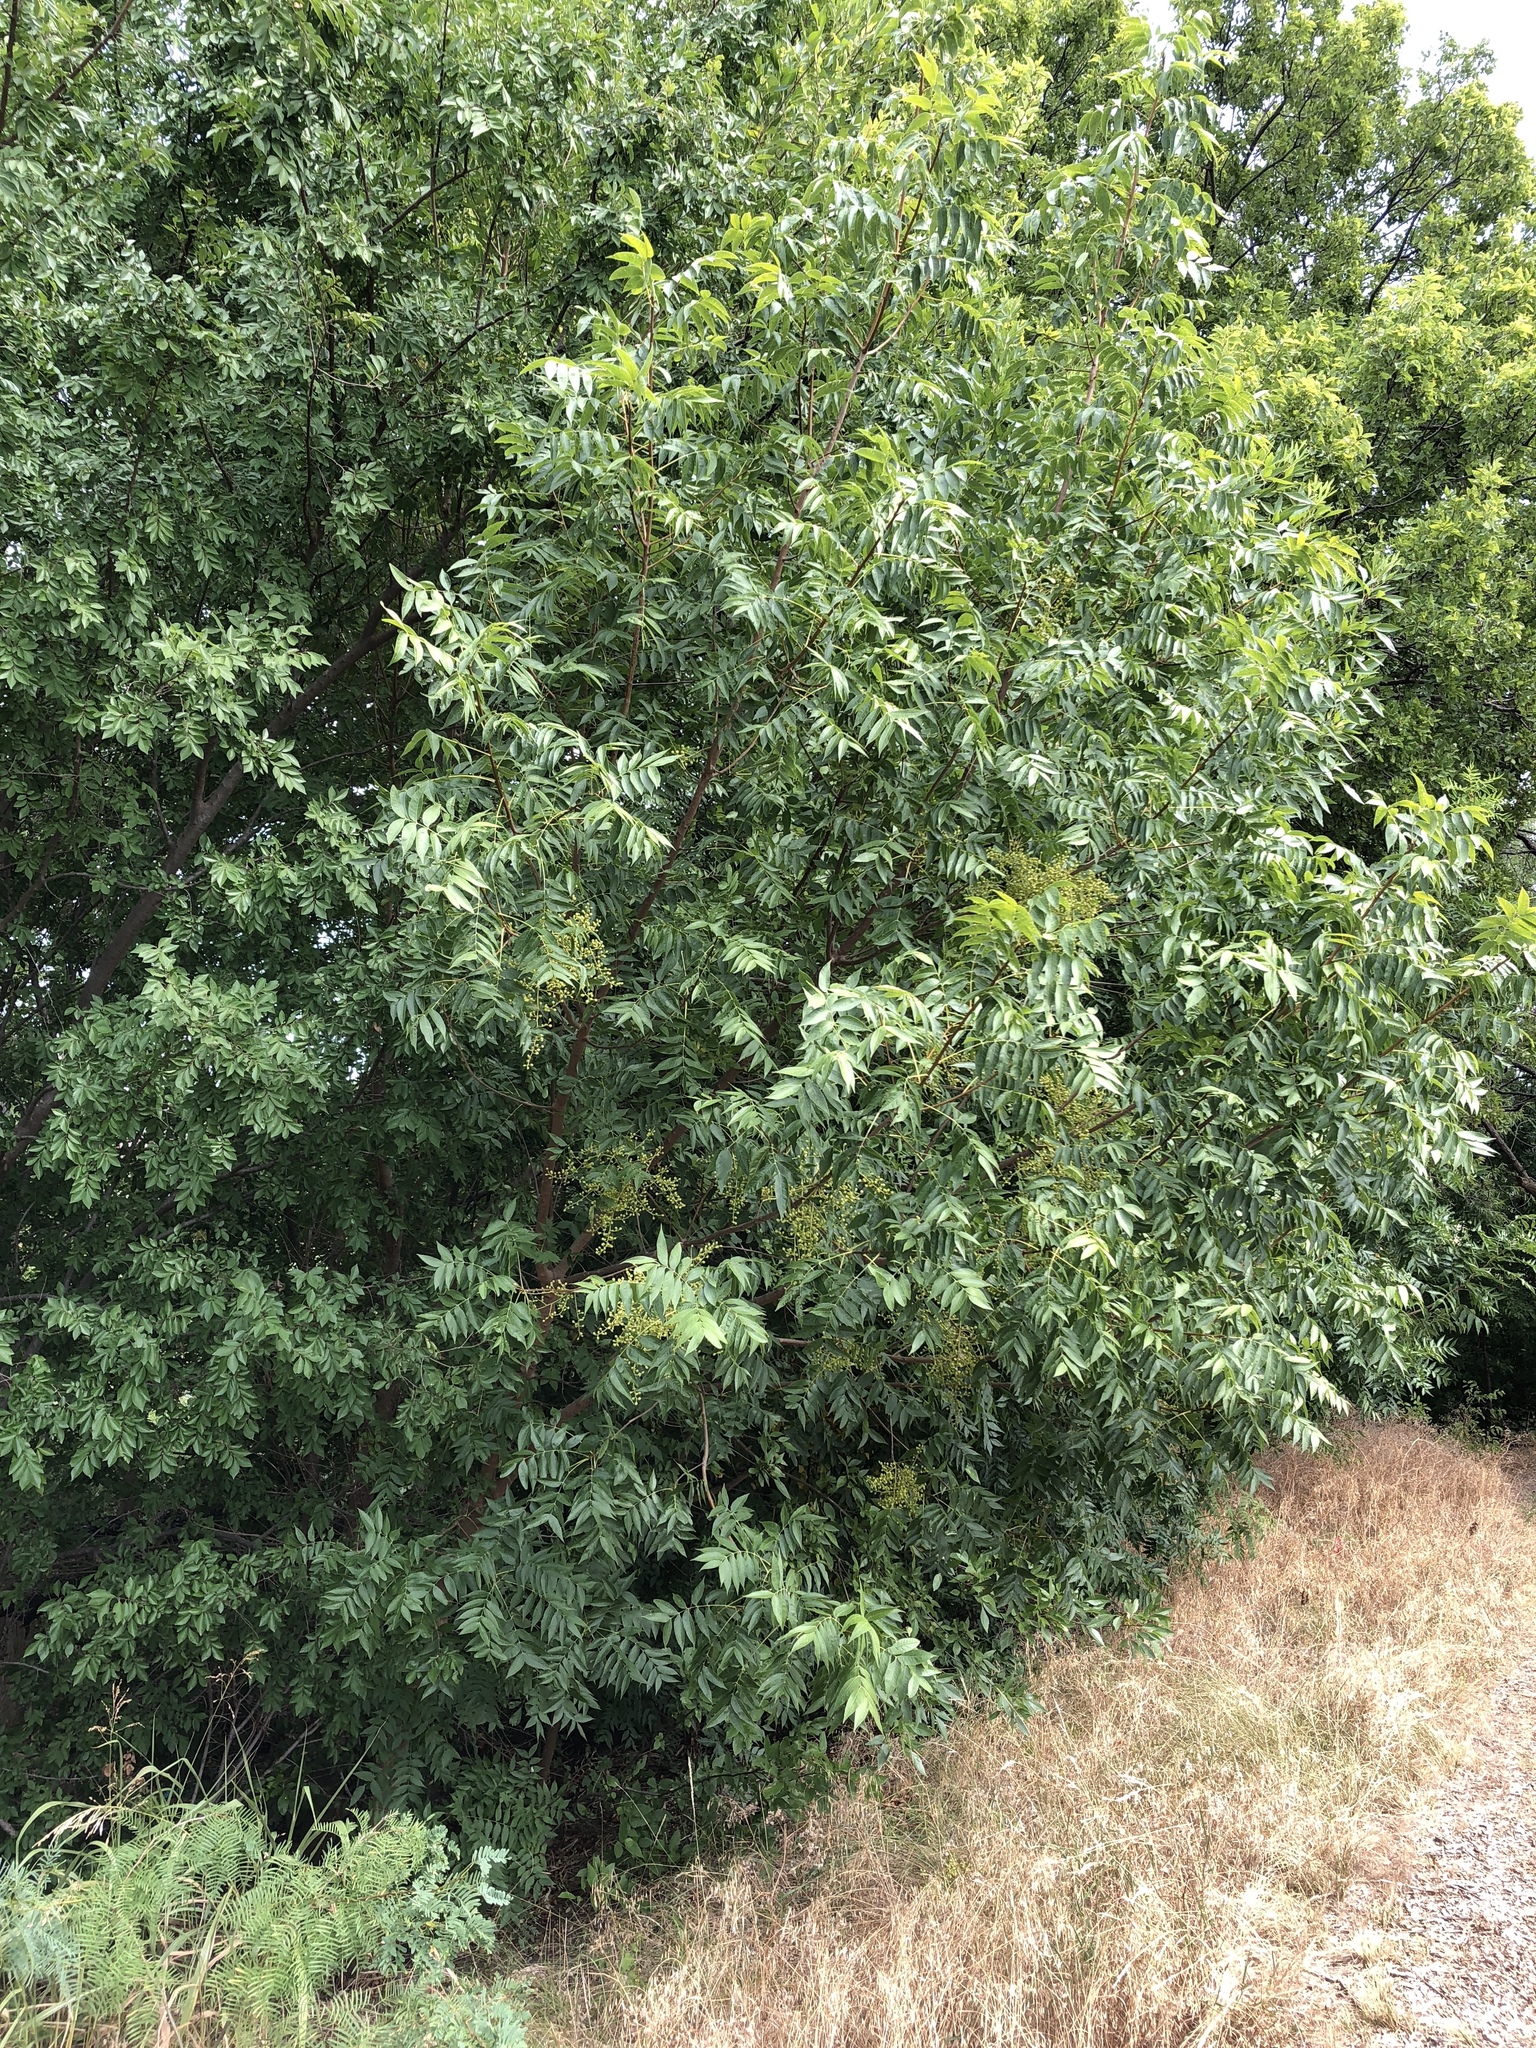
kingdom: Plantae
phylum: Tracheophyta
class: Magnoliopsida
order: Sapindales
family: Anacardiaceae
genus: Pistacia
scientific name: Pistacia chinensis
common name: Chinese pistache
